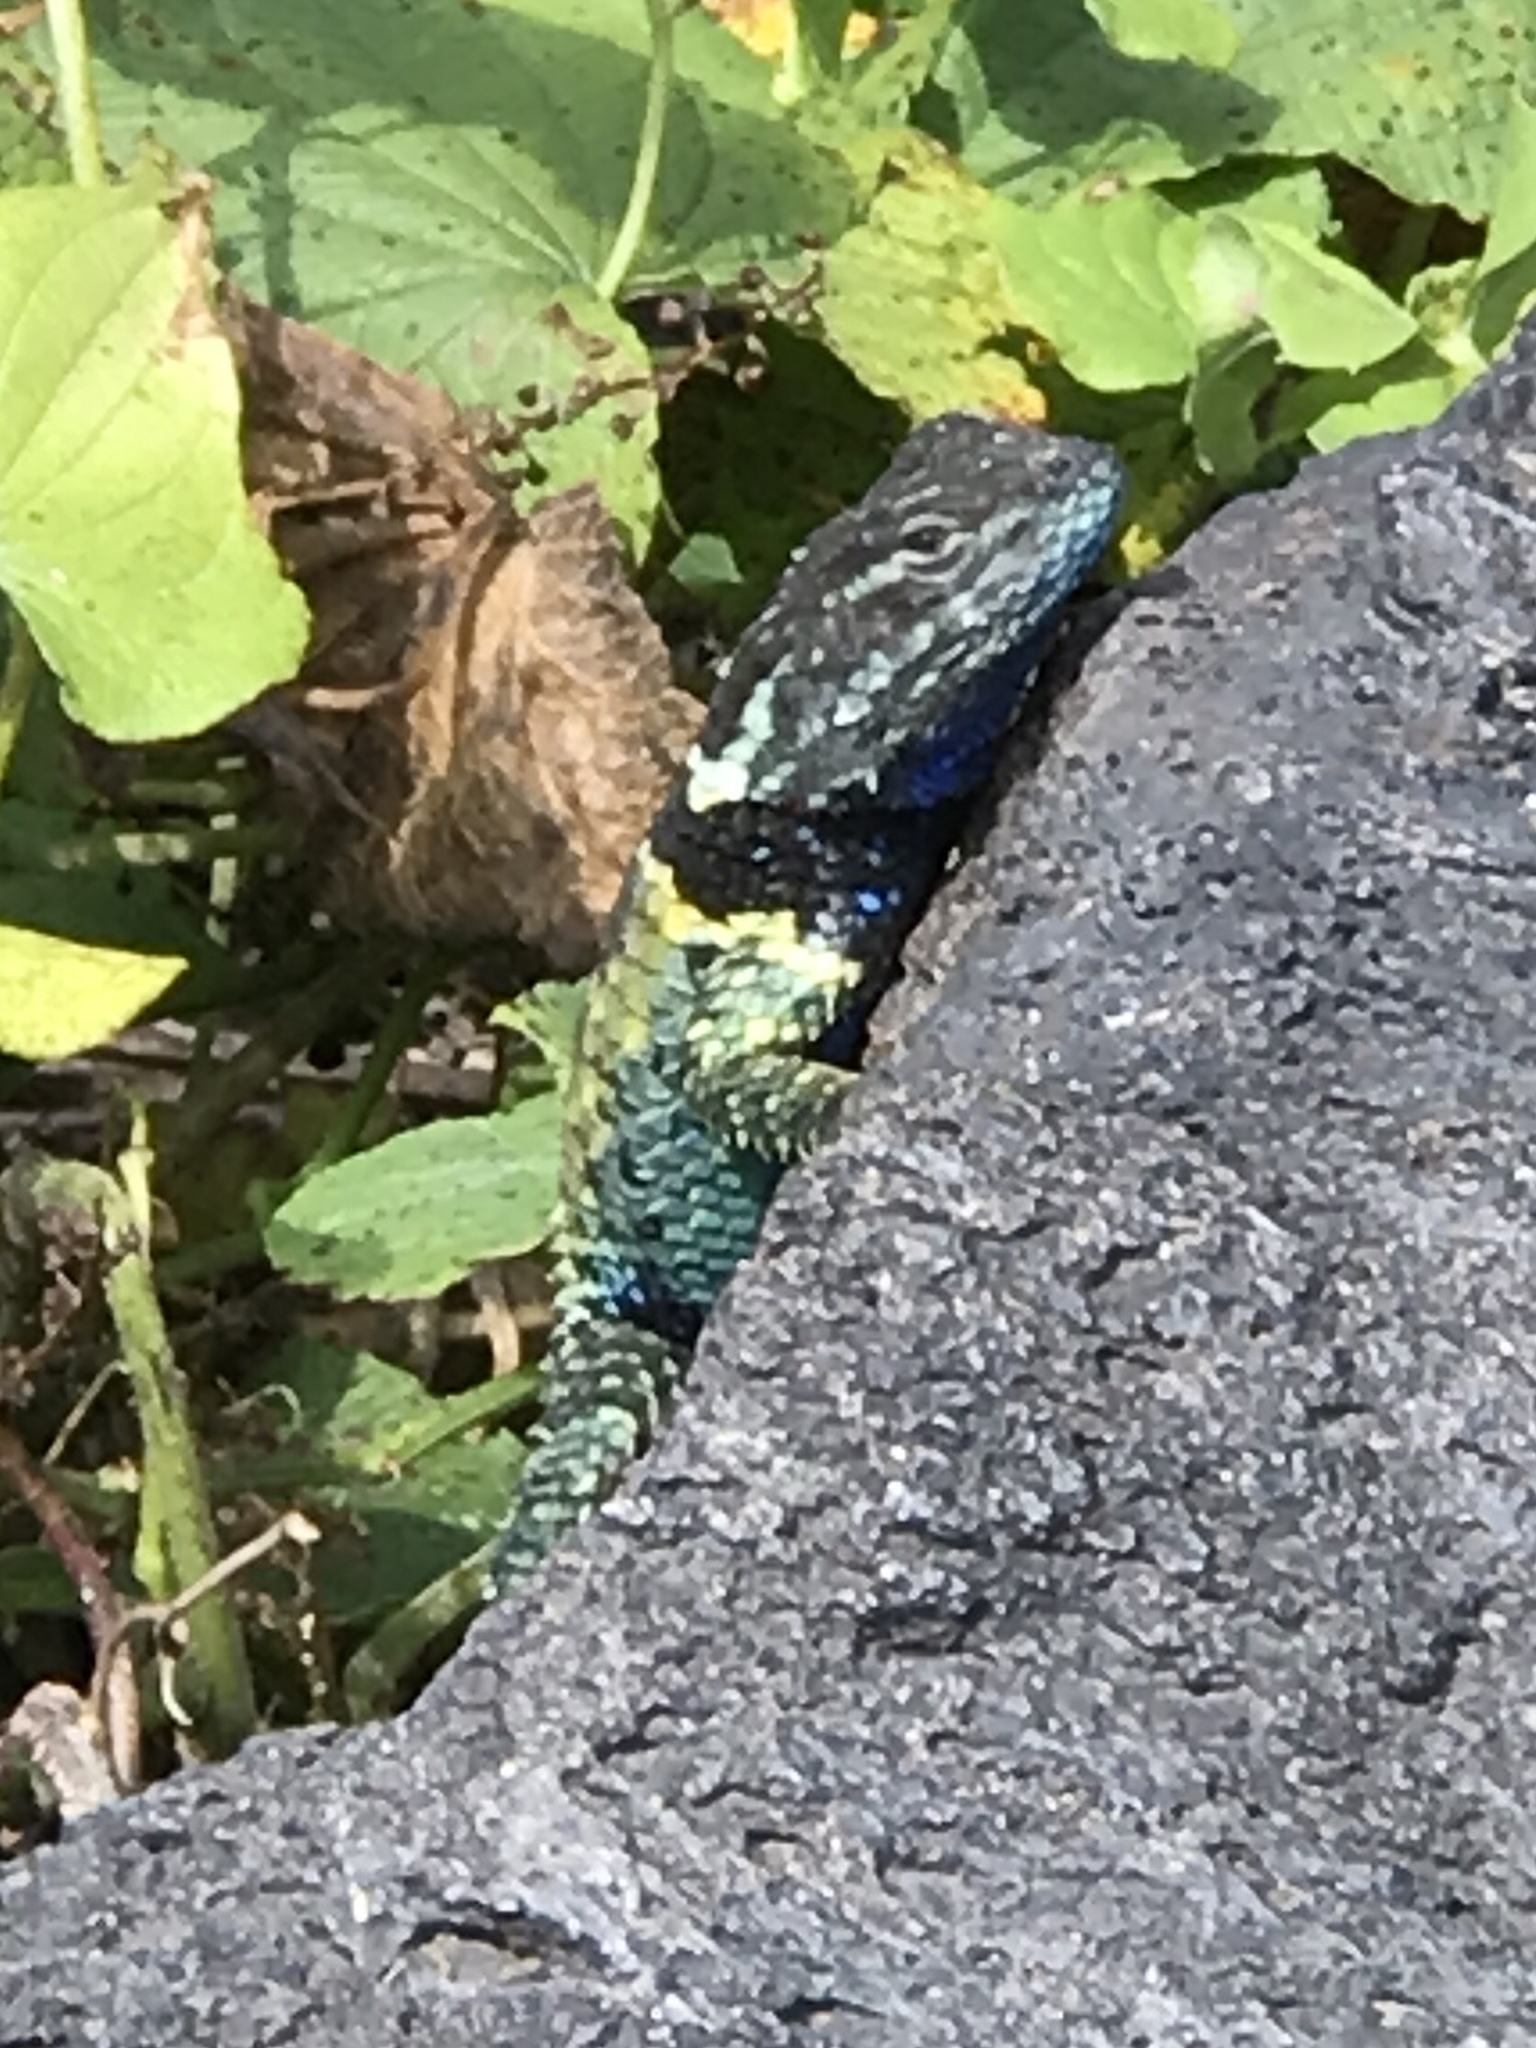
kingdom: Animalia
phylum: Chordata
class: Squamata
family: Phrynosomatidae
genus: Sceloporus
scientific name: Sceloporus torquatus
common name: Central plateau torquate lizard [melanogaster]
